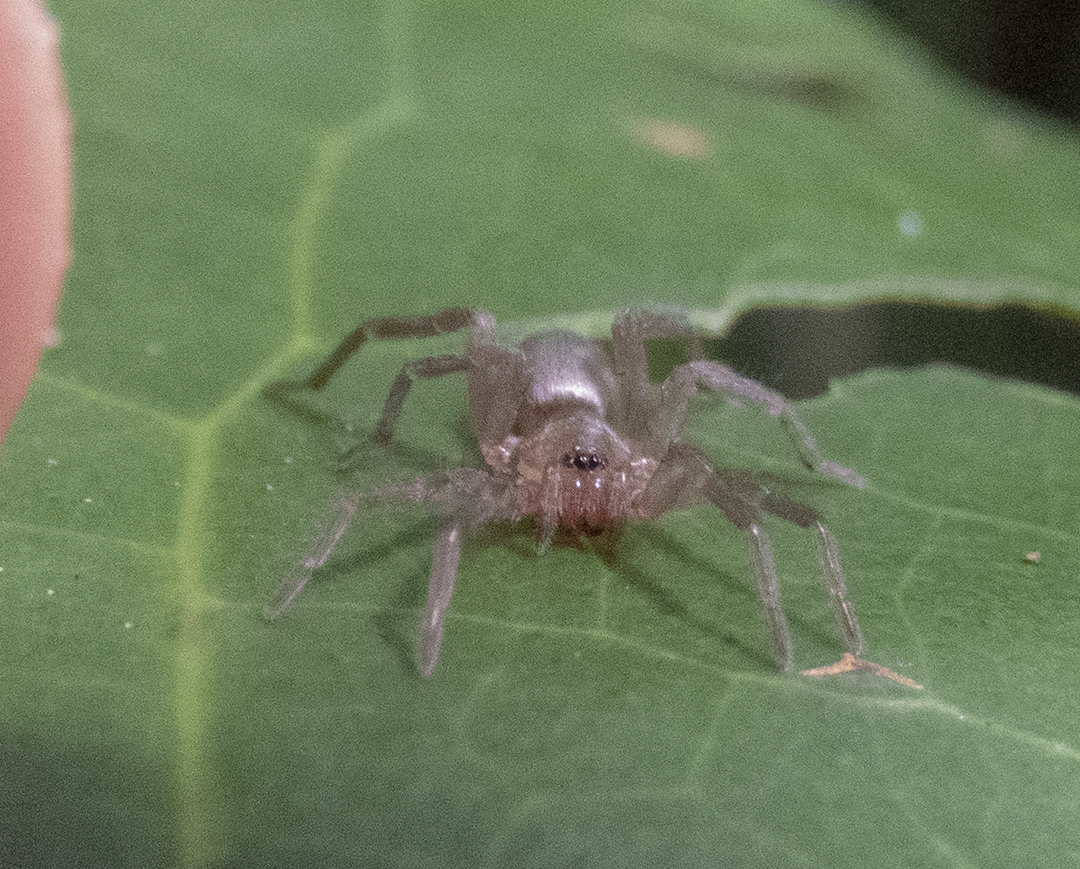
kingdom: Animalia
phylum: Arthropoda
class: Arachnida
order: Araneae
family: Gnaphosidae
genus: Hypodrassodes
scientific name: Hypodrassodes maoricus
